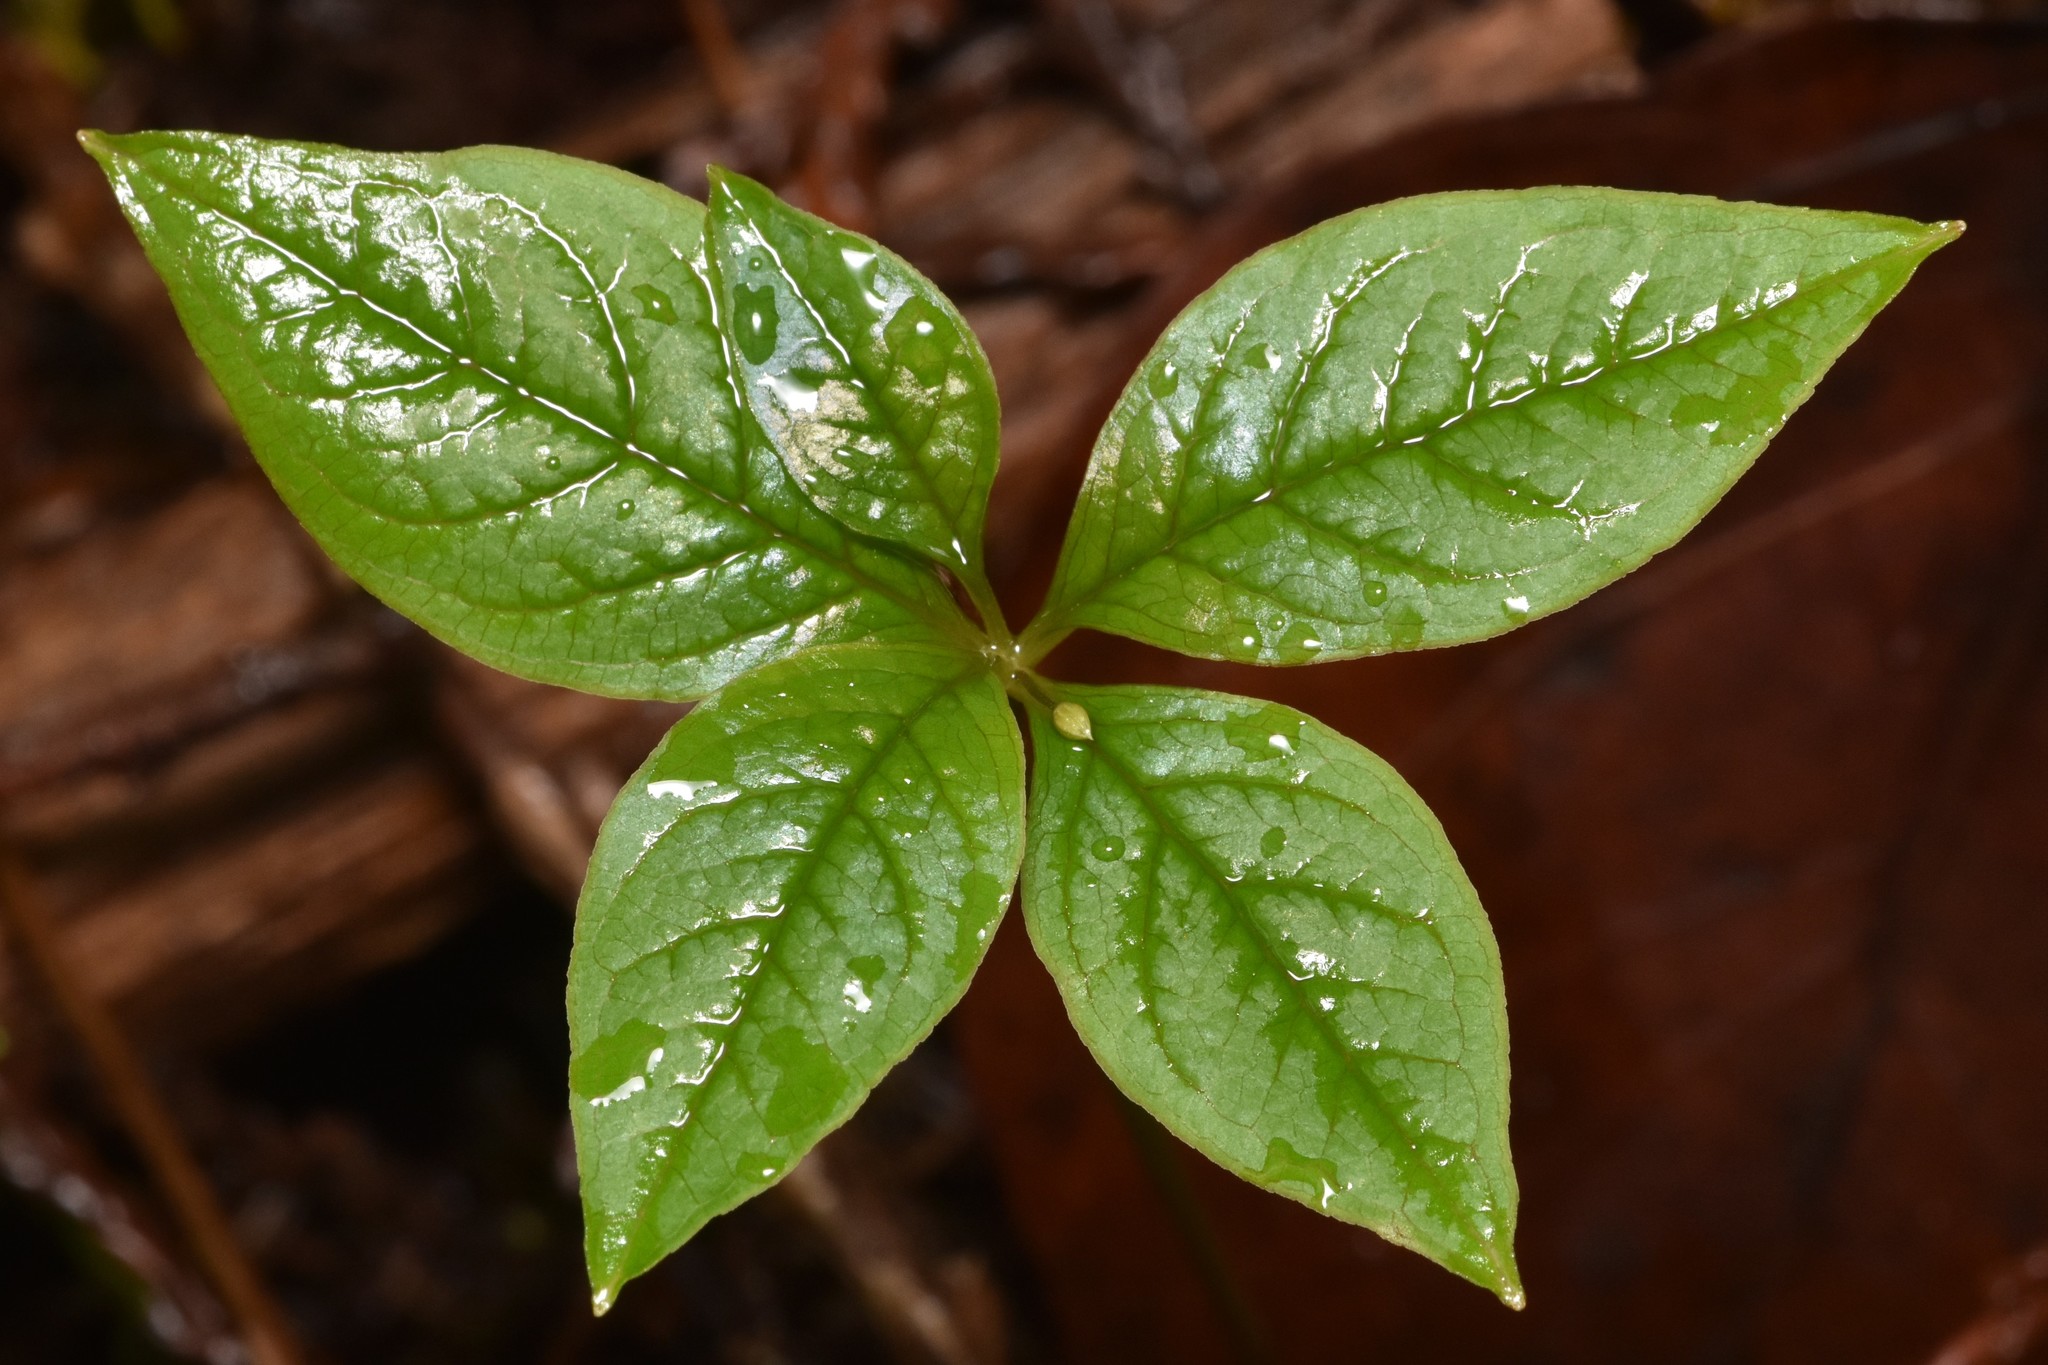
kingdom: Plantae
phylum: Tracheophyta
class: Magnoliopsida
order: Ericales
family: Primulaceae
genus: Lysimachia
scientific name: Lysimachia latifolia
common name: Pacific starflower
